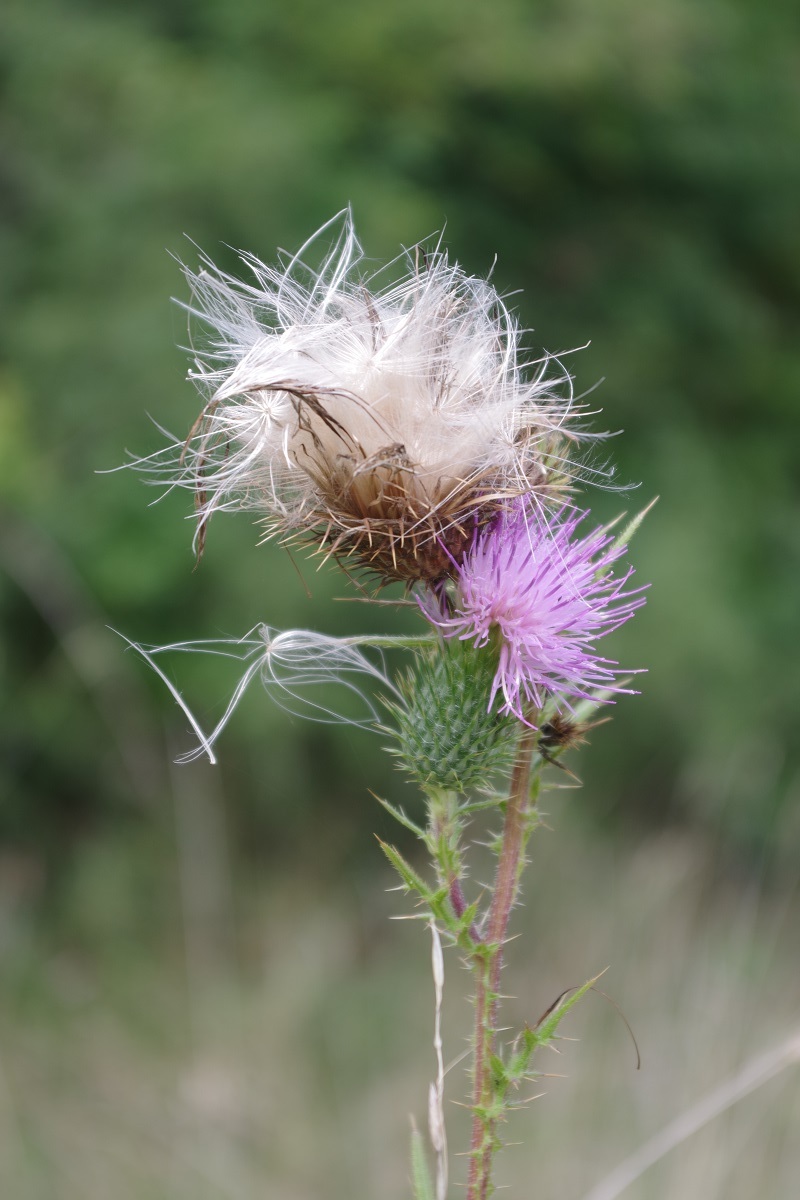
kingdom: Plantae
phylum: Tracheophyta
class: Magnoliopsida
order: Asterales
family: Asteraceae
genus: Cirsium
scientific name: Cirsium vulgare
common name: Bull thistle
